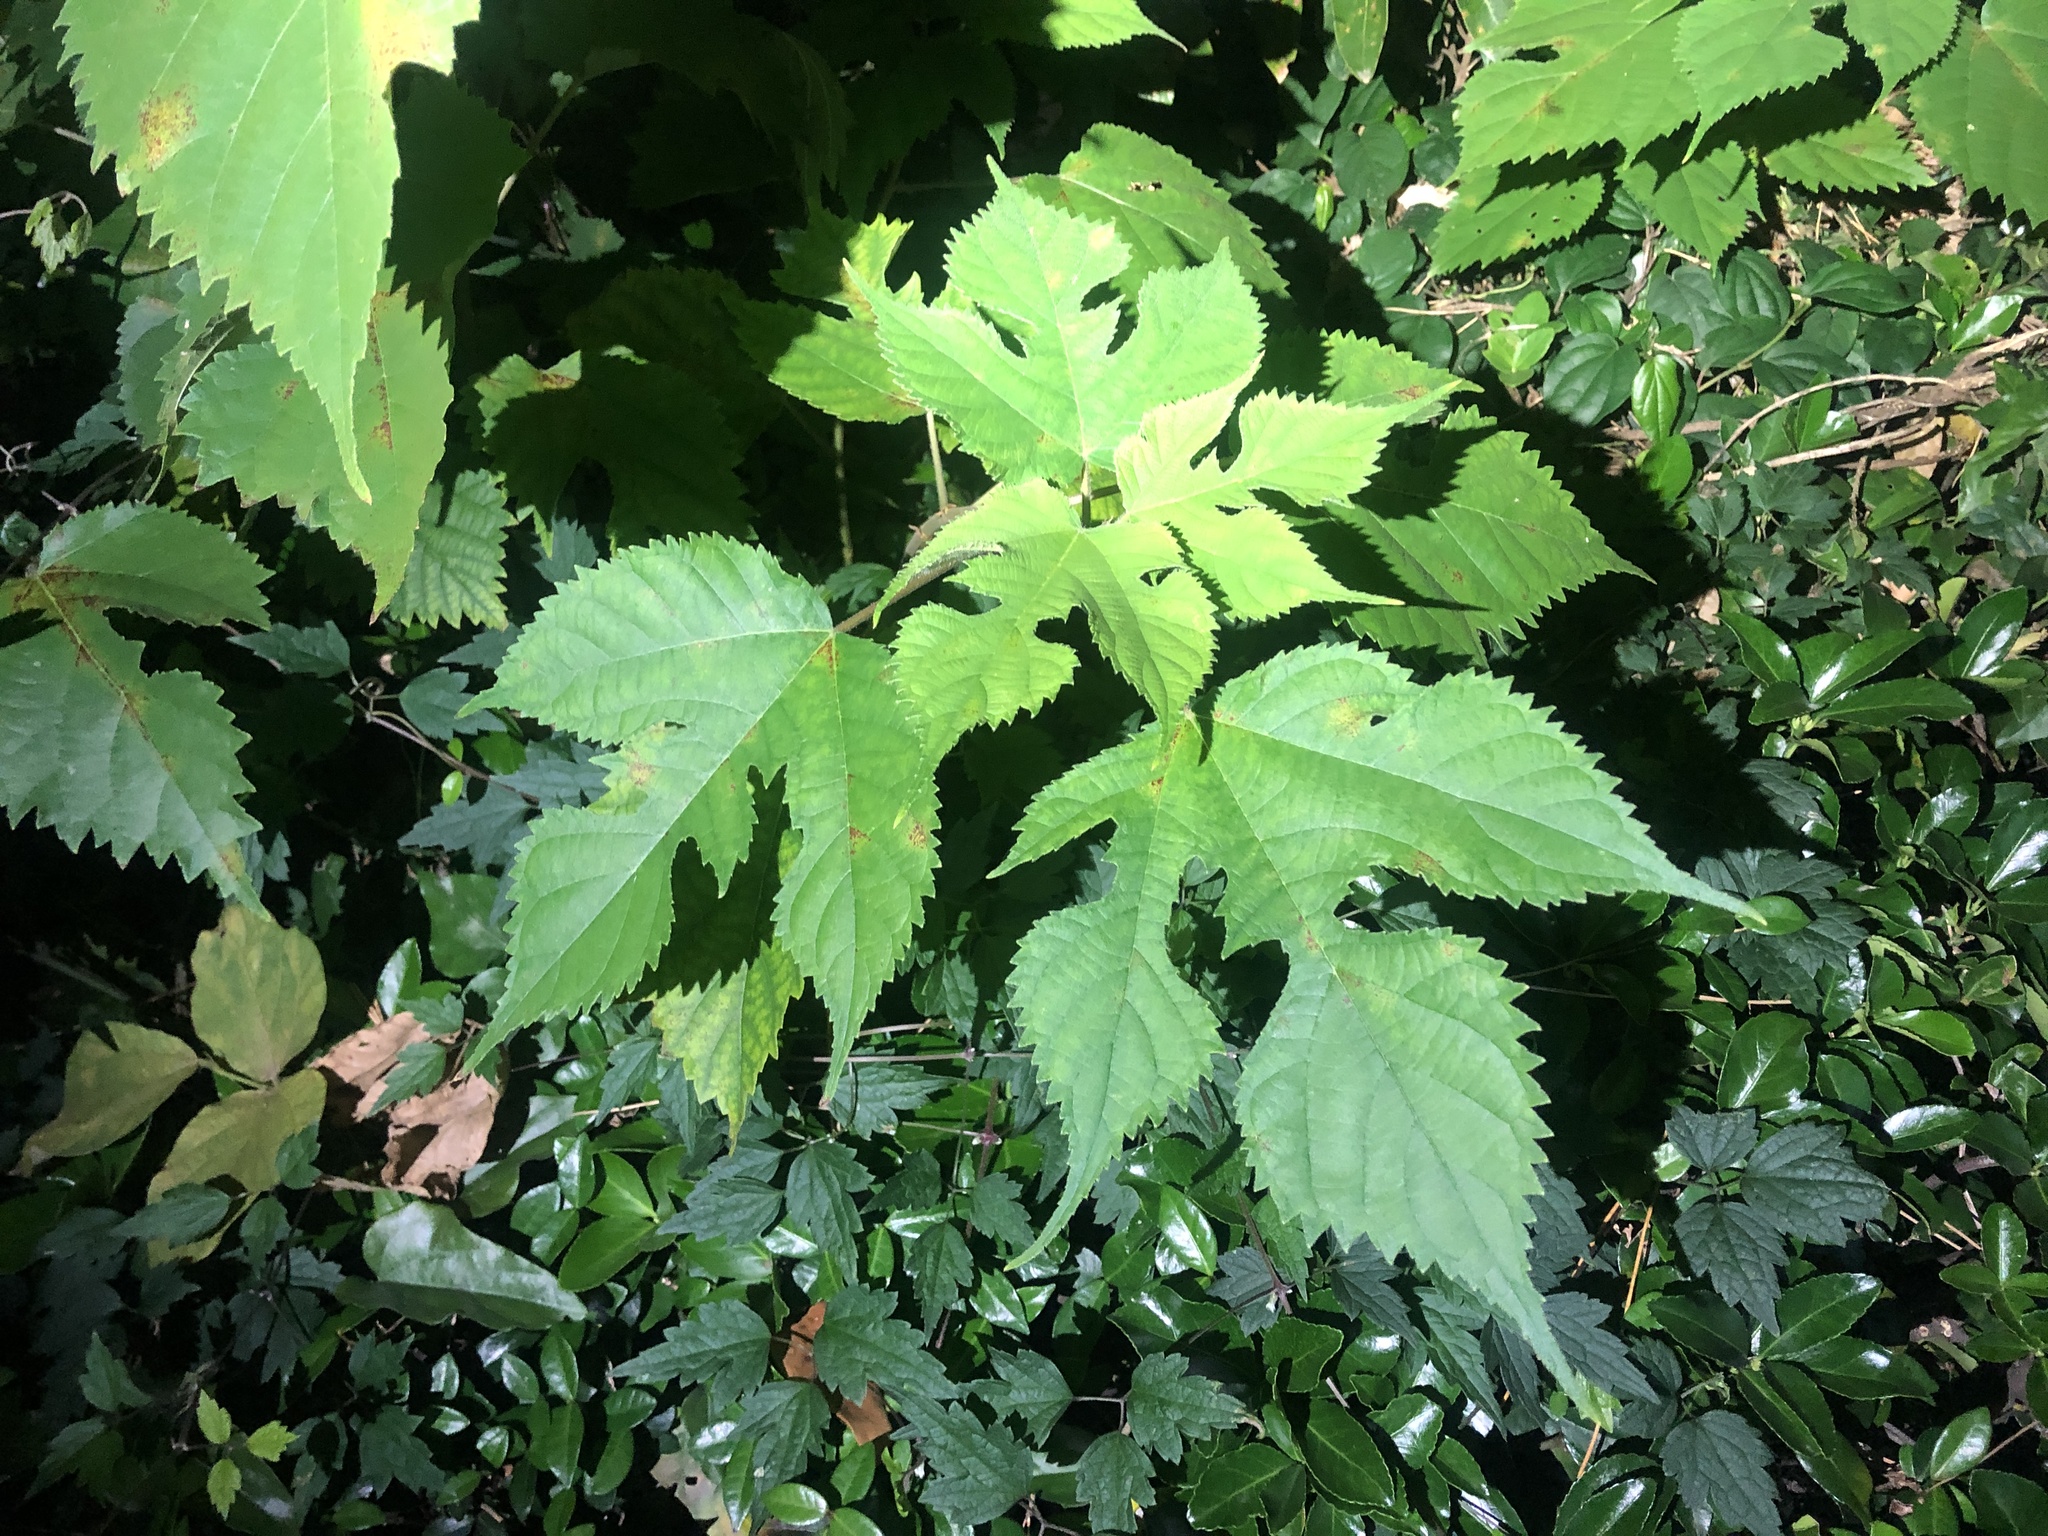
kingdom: Plantae
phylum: Tracheophyta
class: Magnoliopsida
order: Rosales
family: Moraceae
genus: Broussonetia
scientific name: Broussonetia papyrifera
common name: Paper mulberry
